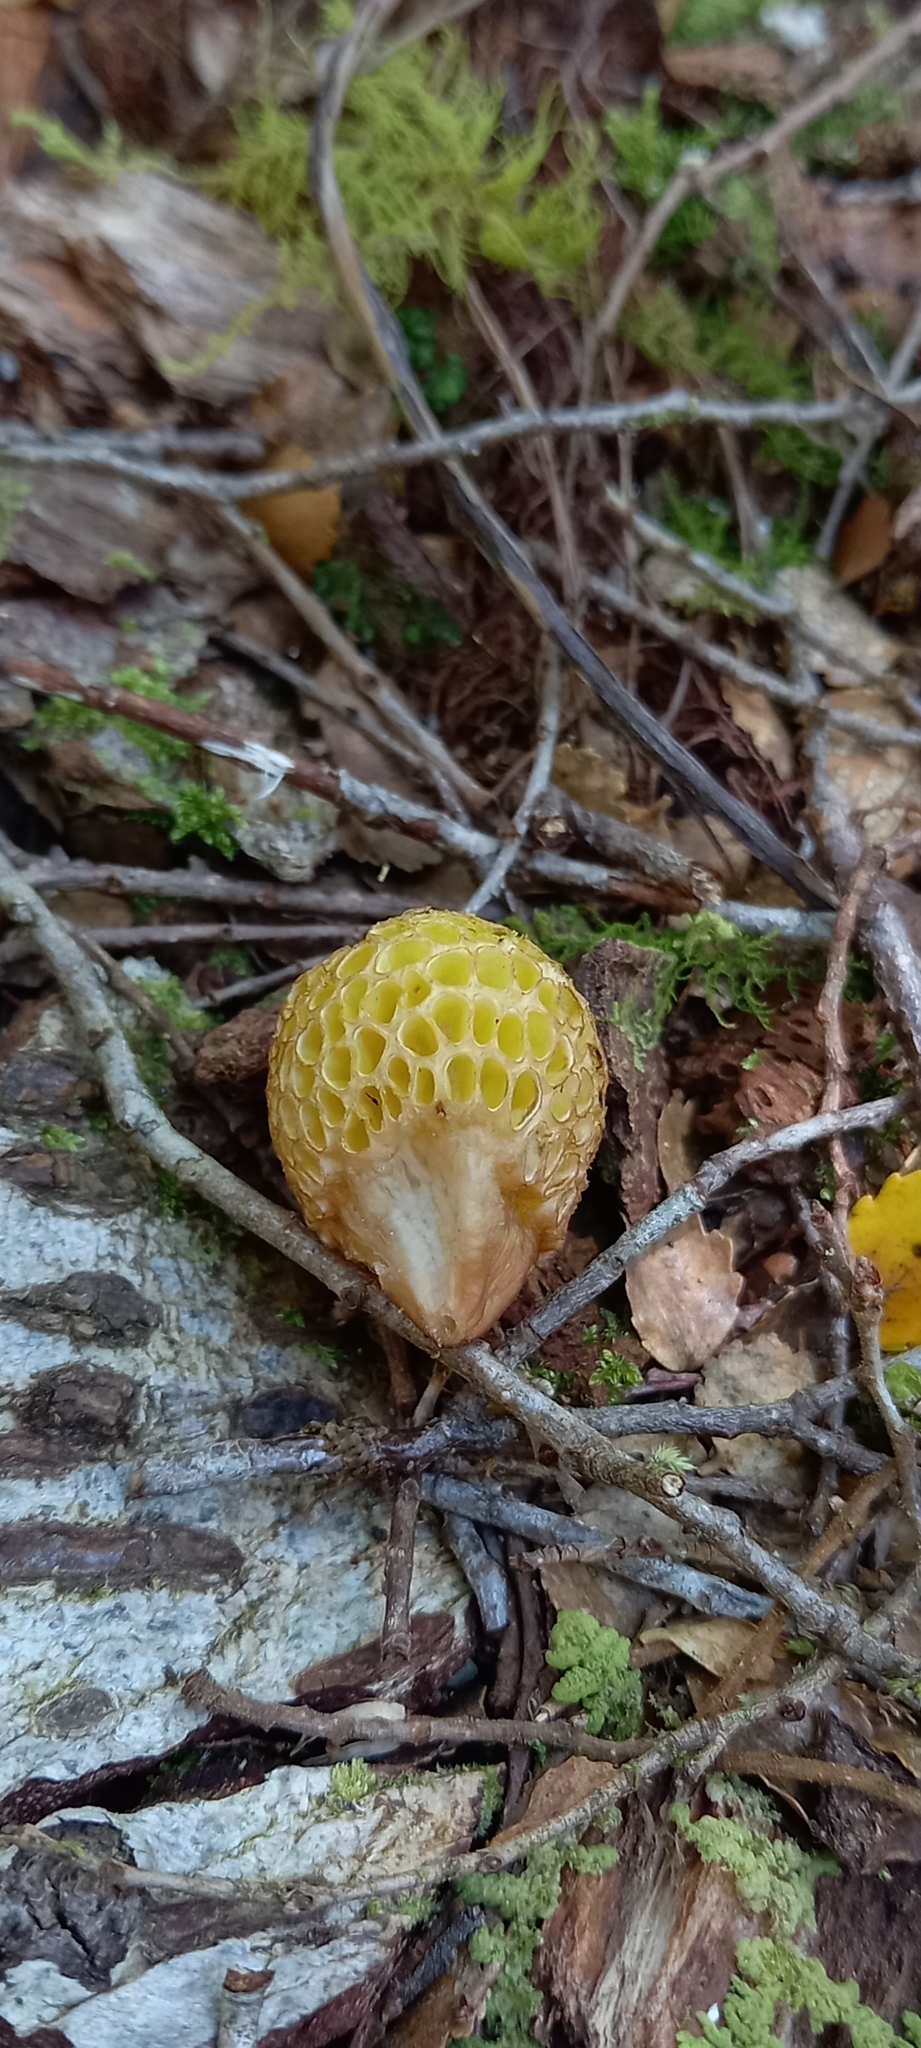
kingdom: Fungi
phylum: Ascomycota
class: Leotiomycetes
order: Cyttariales
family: Cyttariaceae
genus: Cyttaria
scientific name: Cyttaria gunnii
